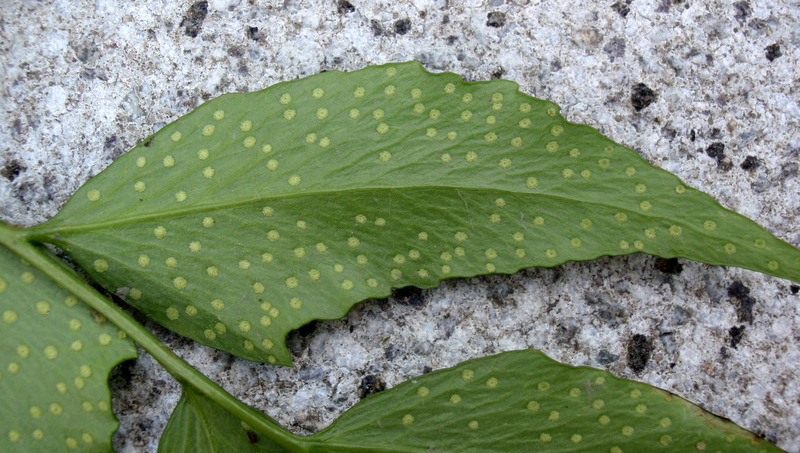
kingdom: Plantae
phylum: Tracheophyta
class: Polypodiopsida
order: Polypodiales
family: Dryopteridaceae
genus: Cyrtomium
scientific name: Cyrtomium falcatum
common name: House holly-fern
